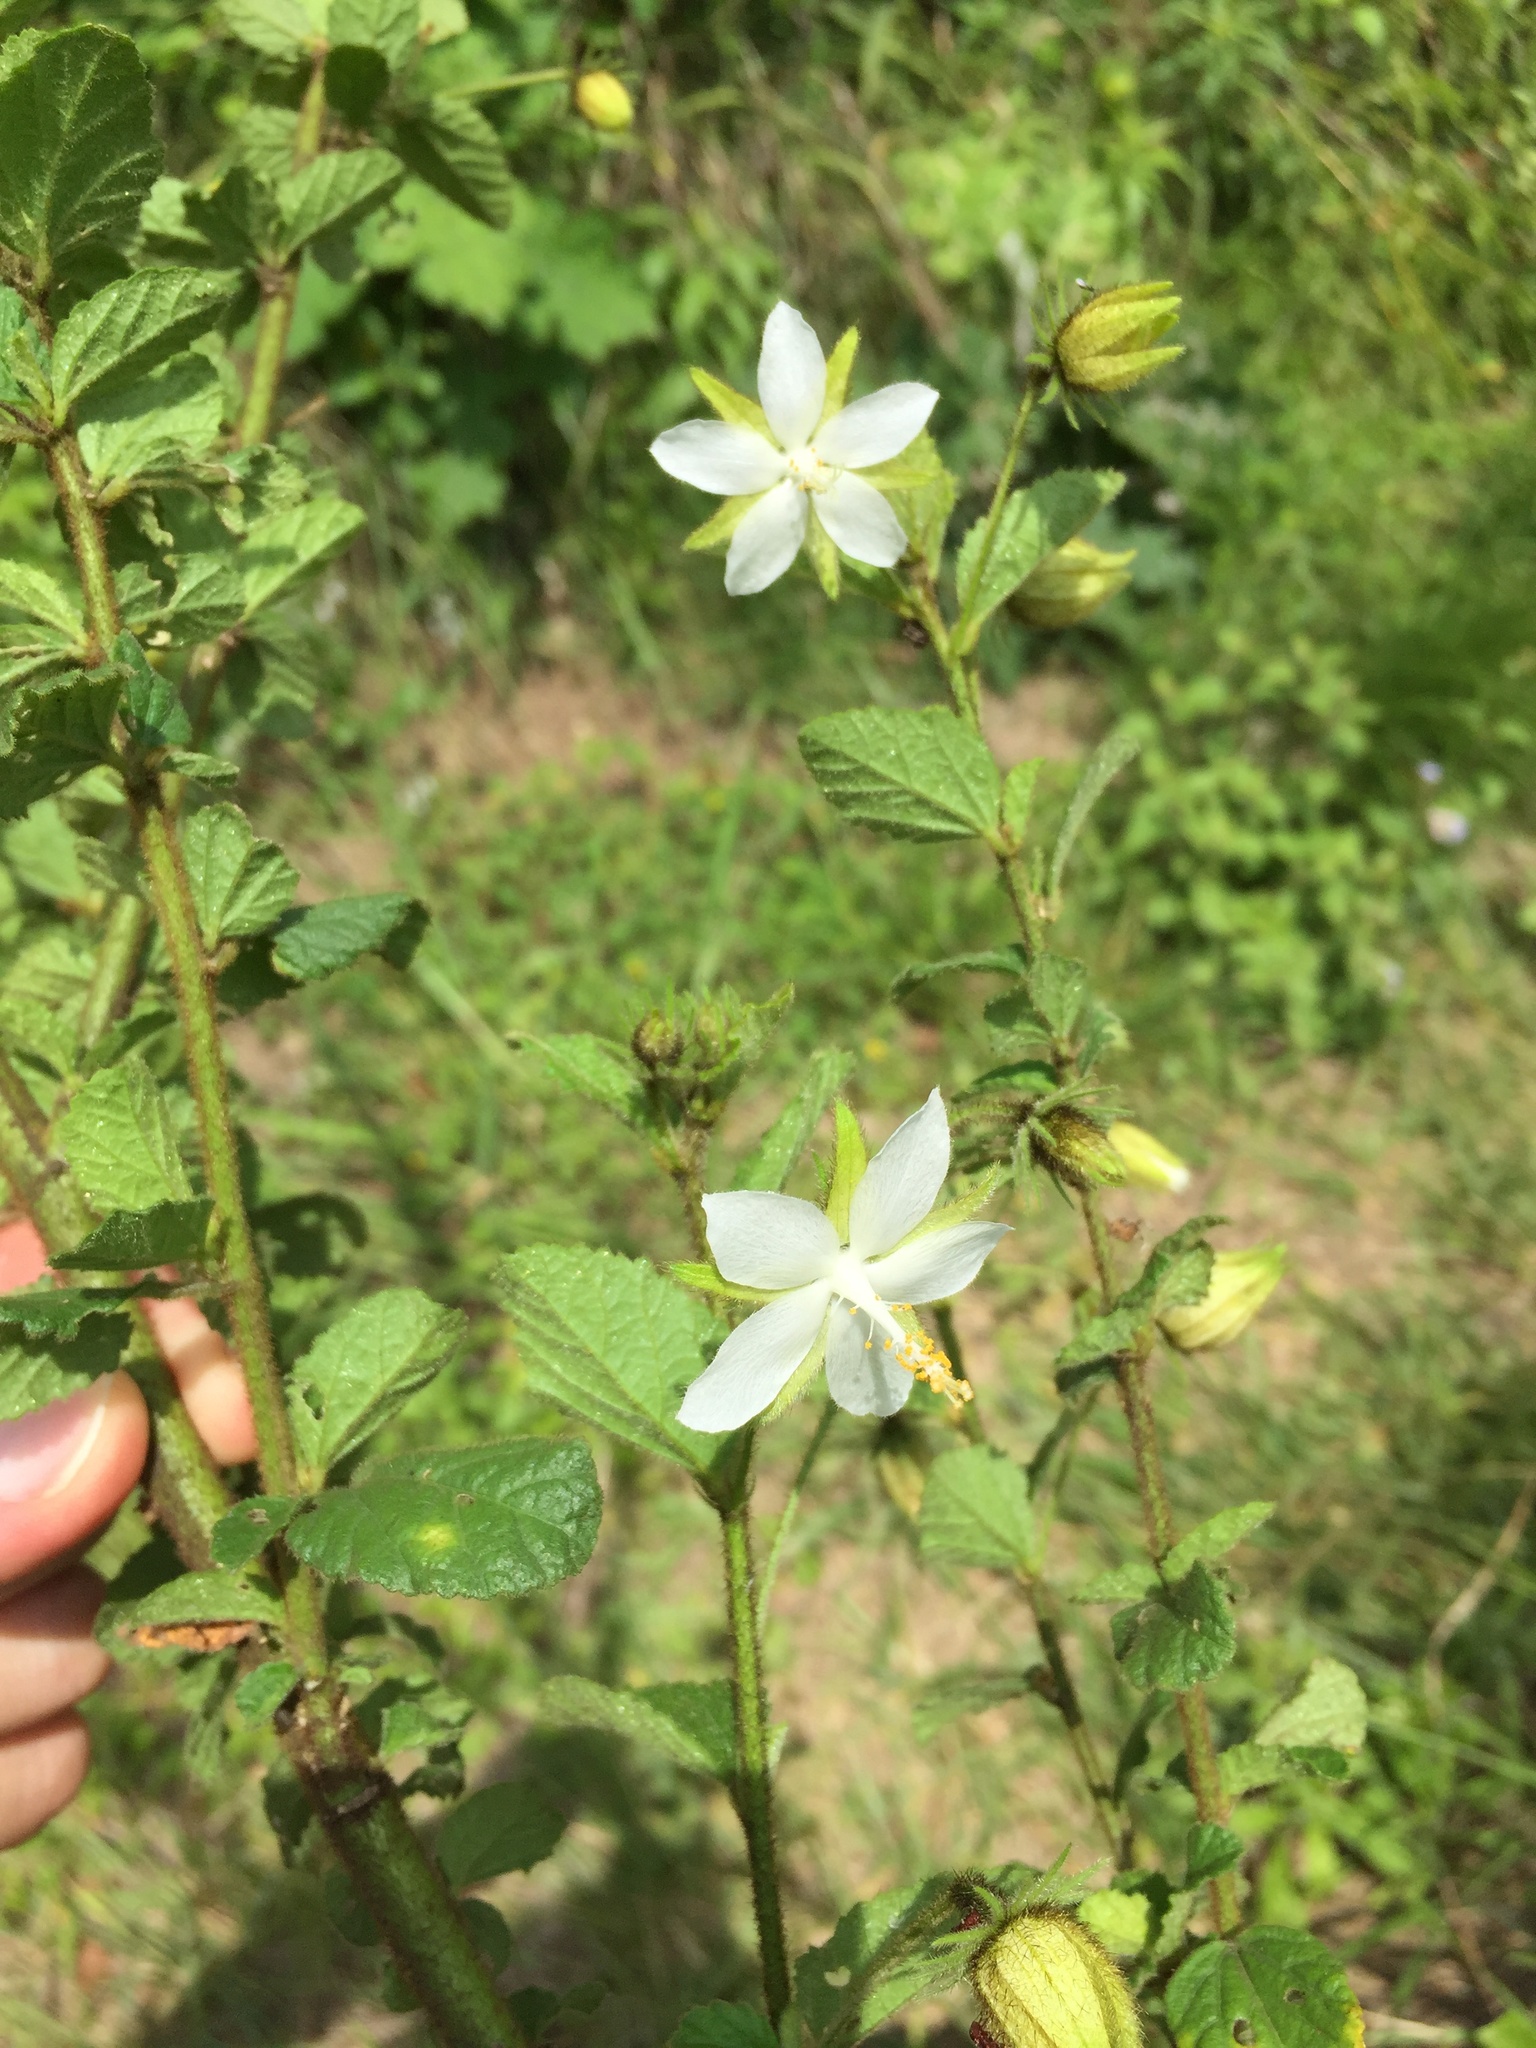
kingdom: Plantae
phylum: Tracheophyta
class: Magnoliopsida
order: Malvales
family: Malvaceae
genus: Hibiscus
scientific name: Hibiscus fuscus
